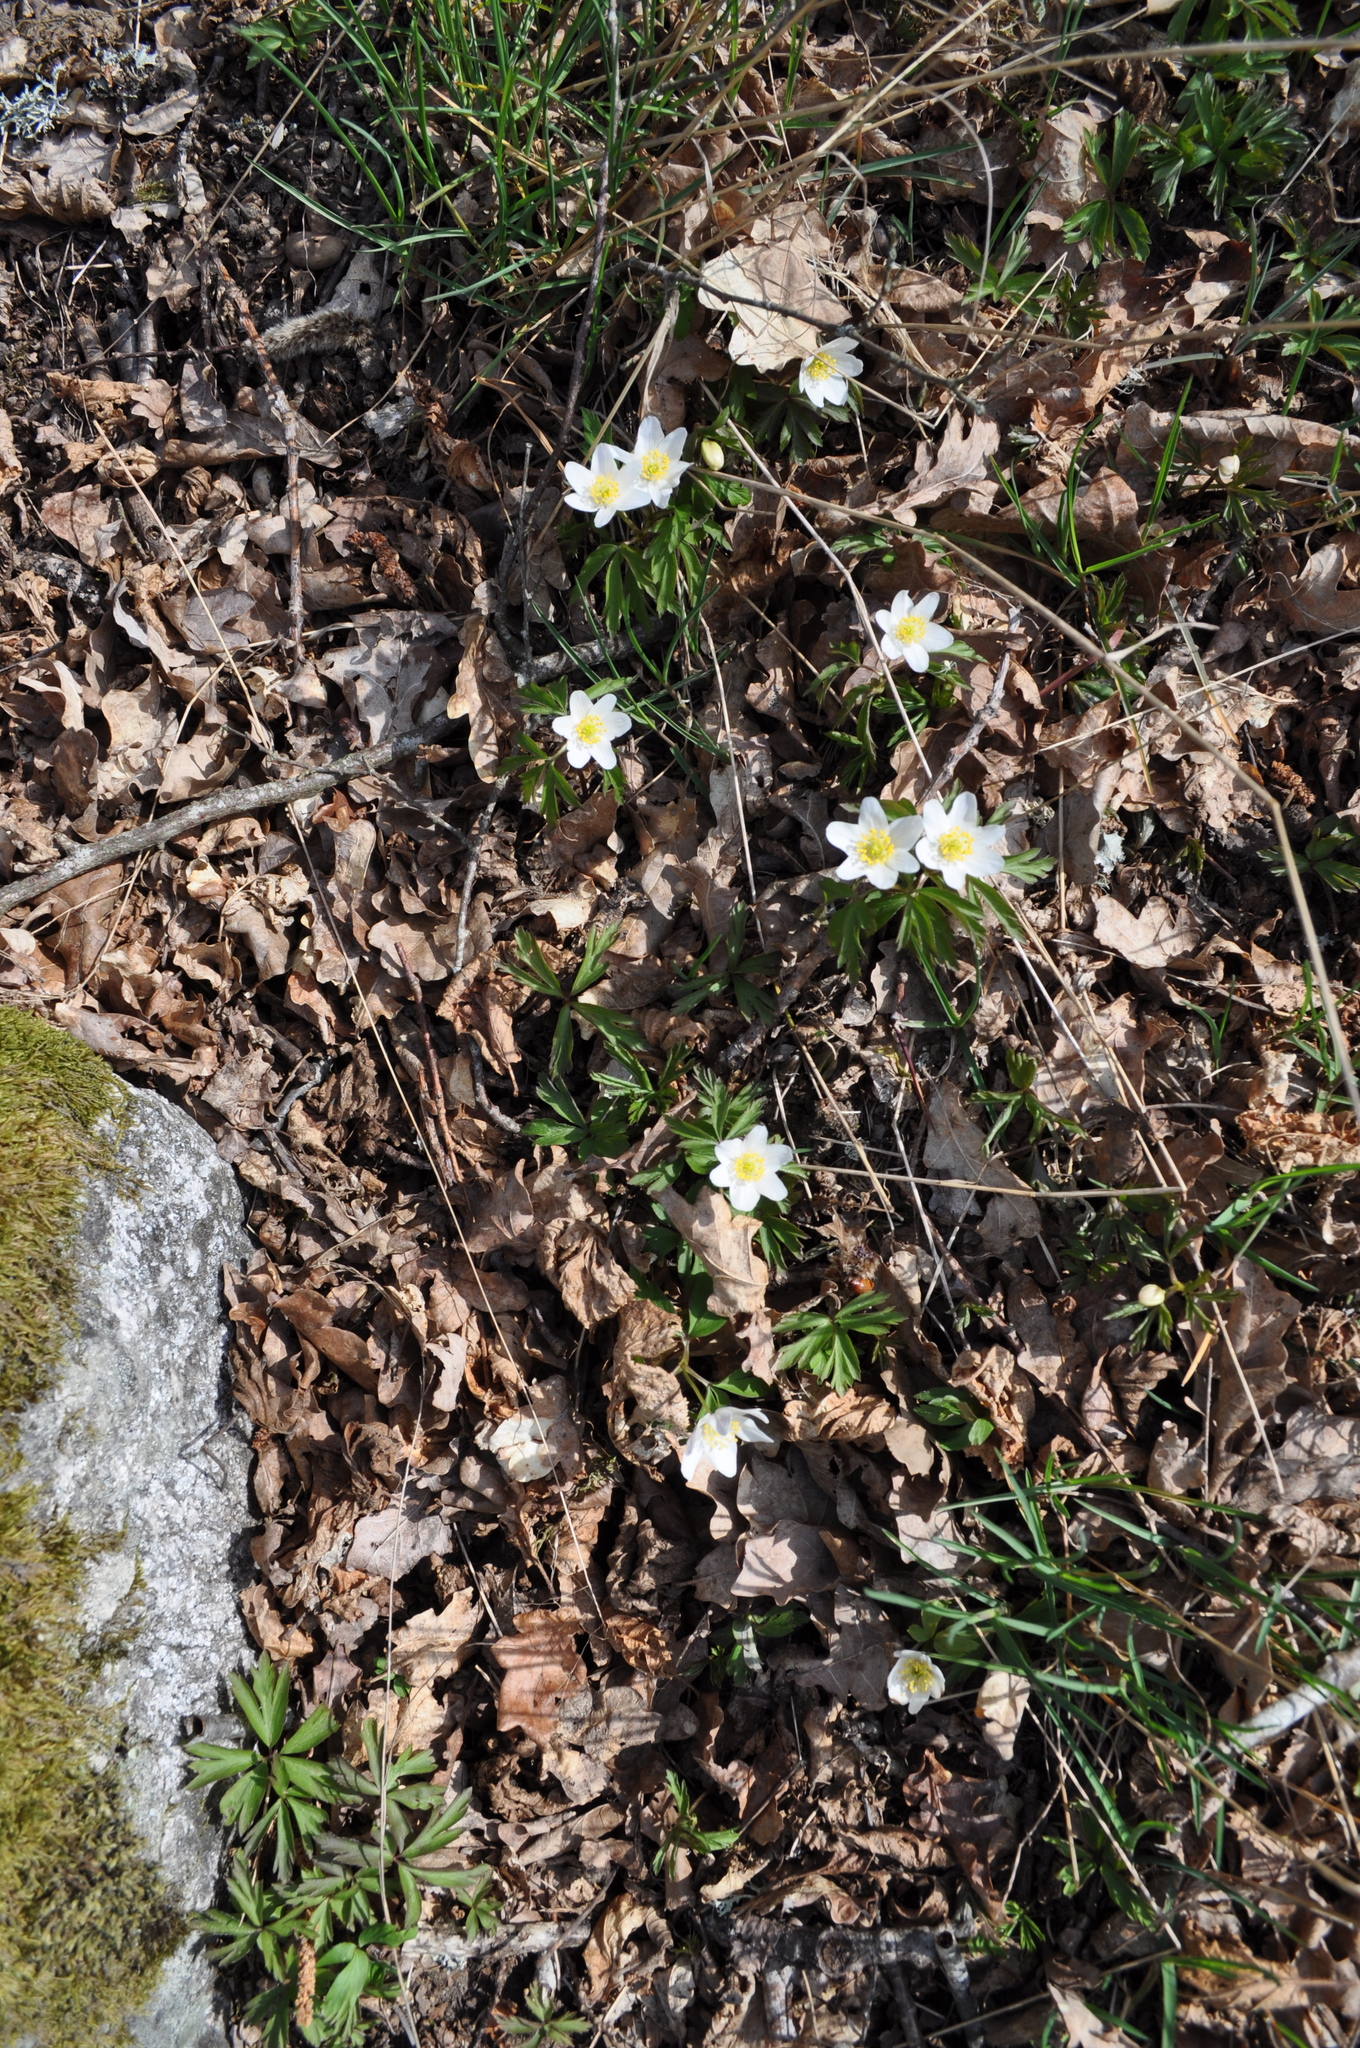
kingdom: Plantae
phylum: Tracheophyta
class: Magnoliopsida
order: Ranunculales
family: Ranunculaceae
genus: Anemone
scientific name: Anemone nemorosa
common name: Wood anemone
